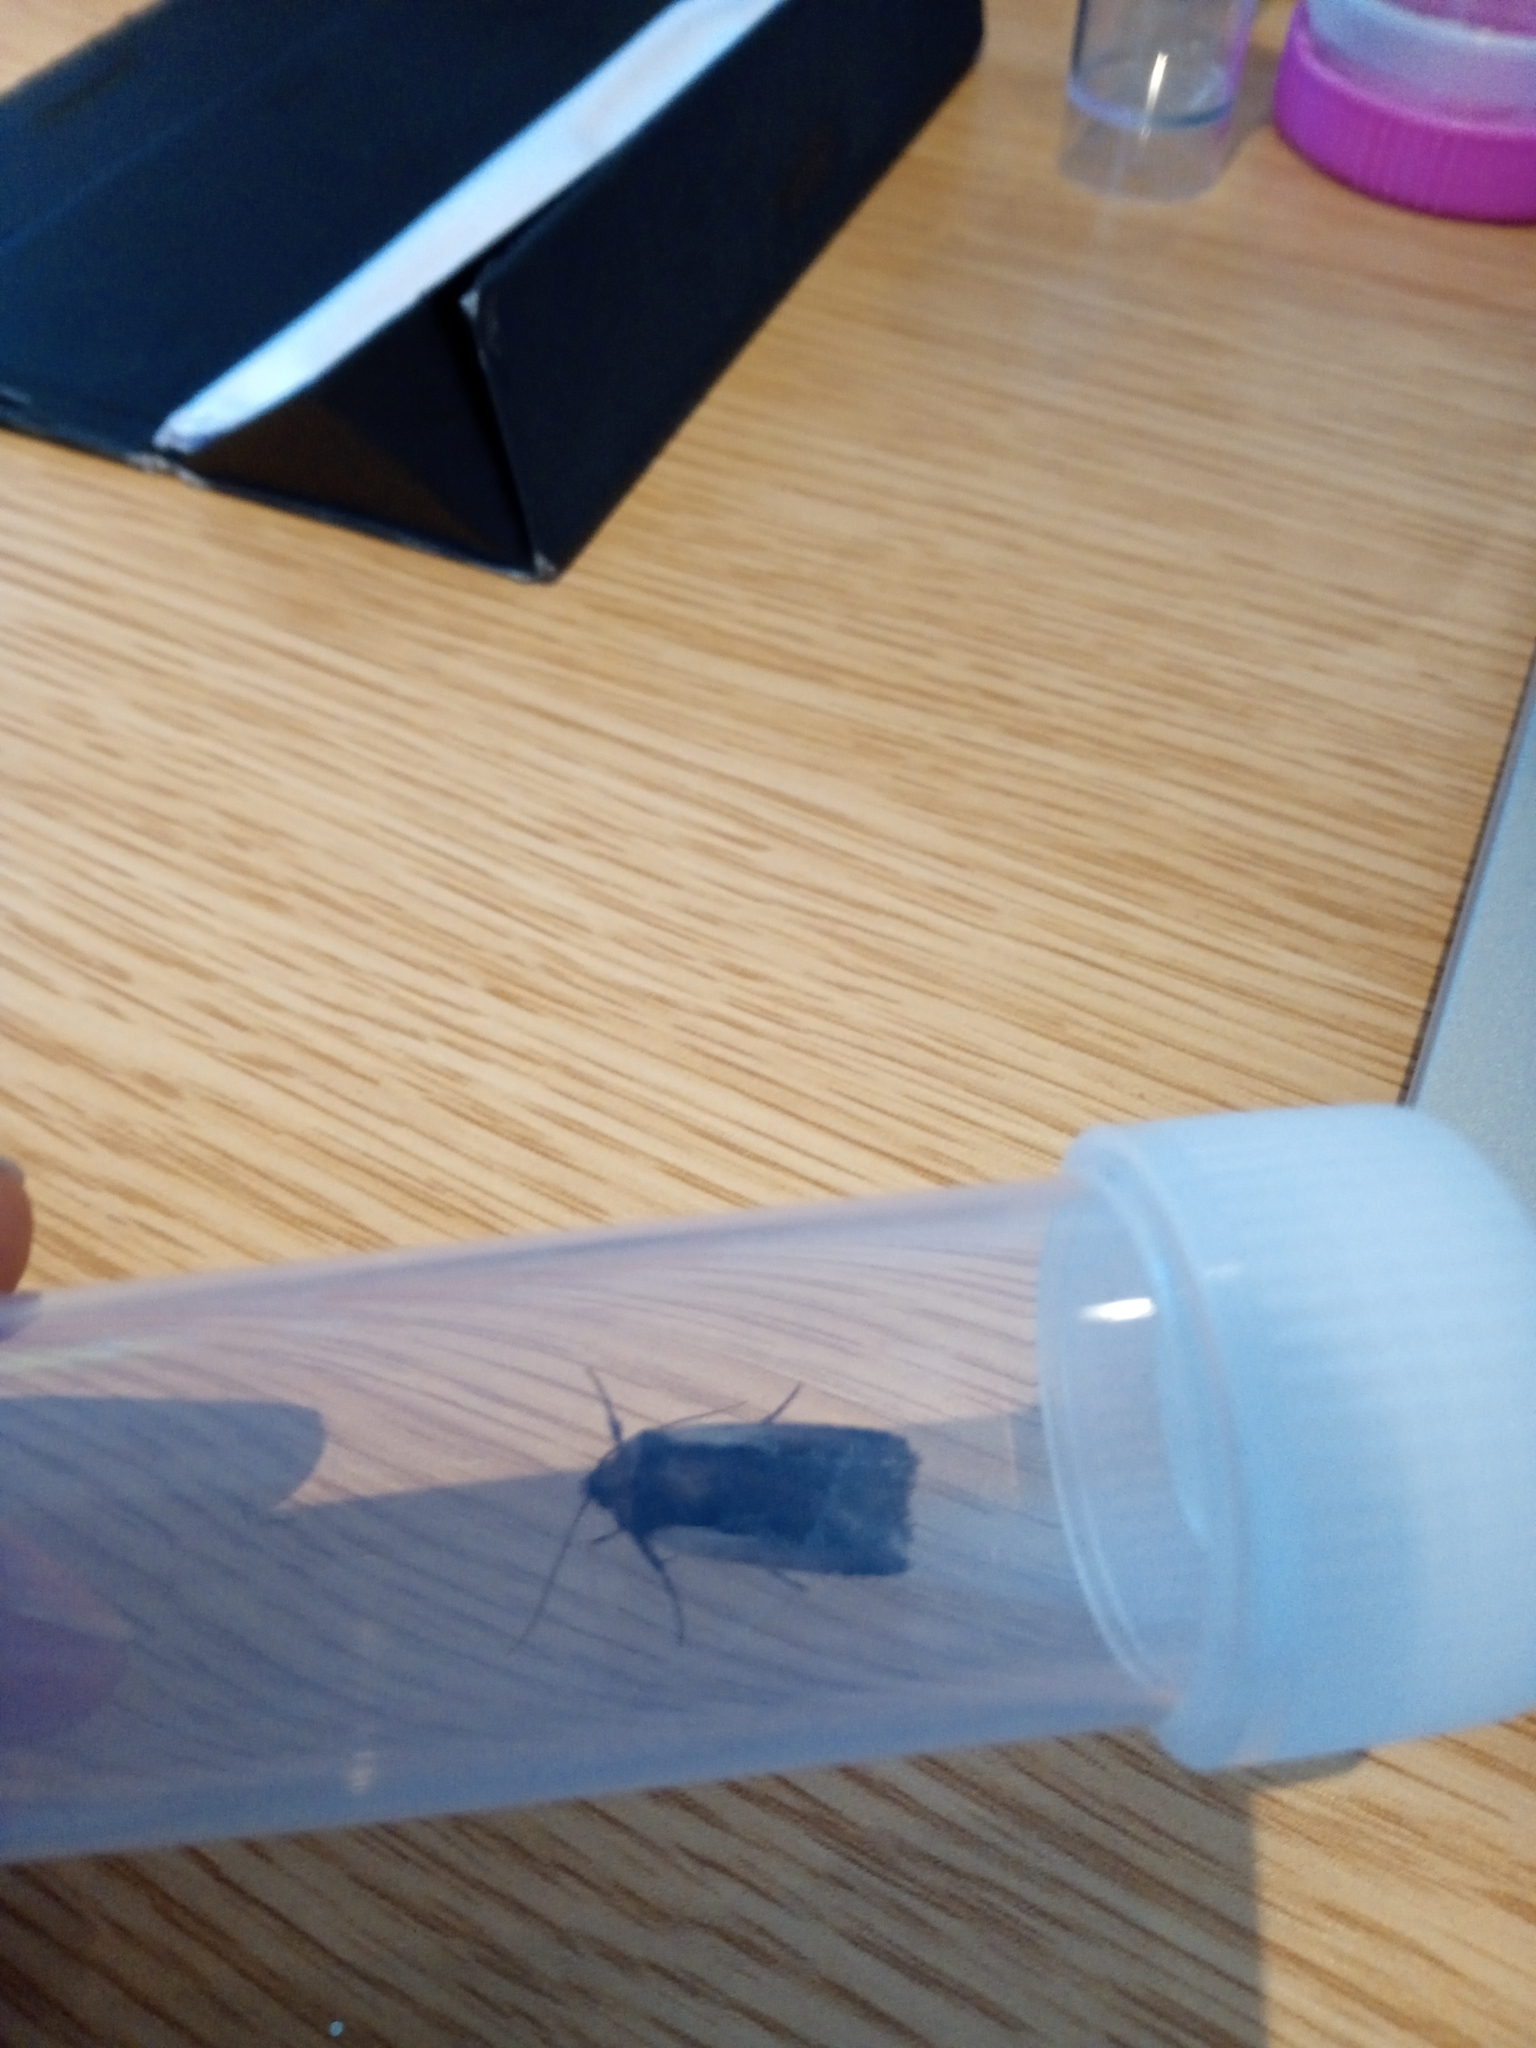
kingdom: Animalia
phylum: Arthropoda
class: Insecta
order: Lepidoptera
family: Noctuidae
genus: Ochropleura
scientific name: Ochropleura plecta
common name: Flame shoulder
